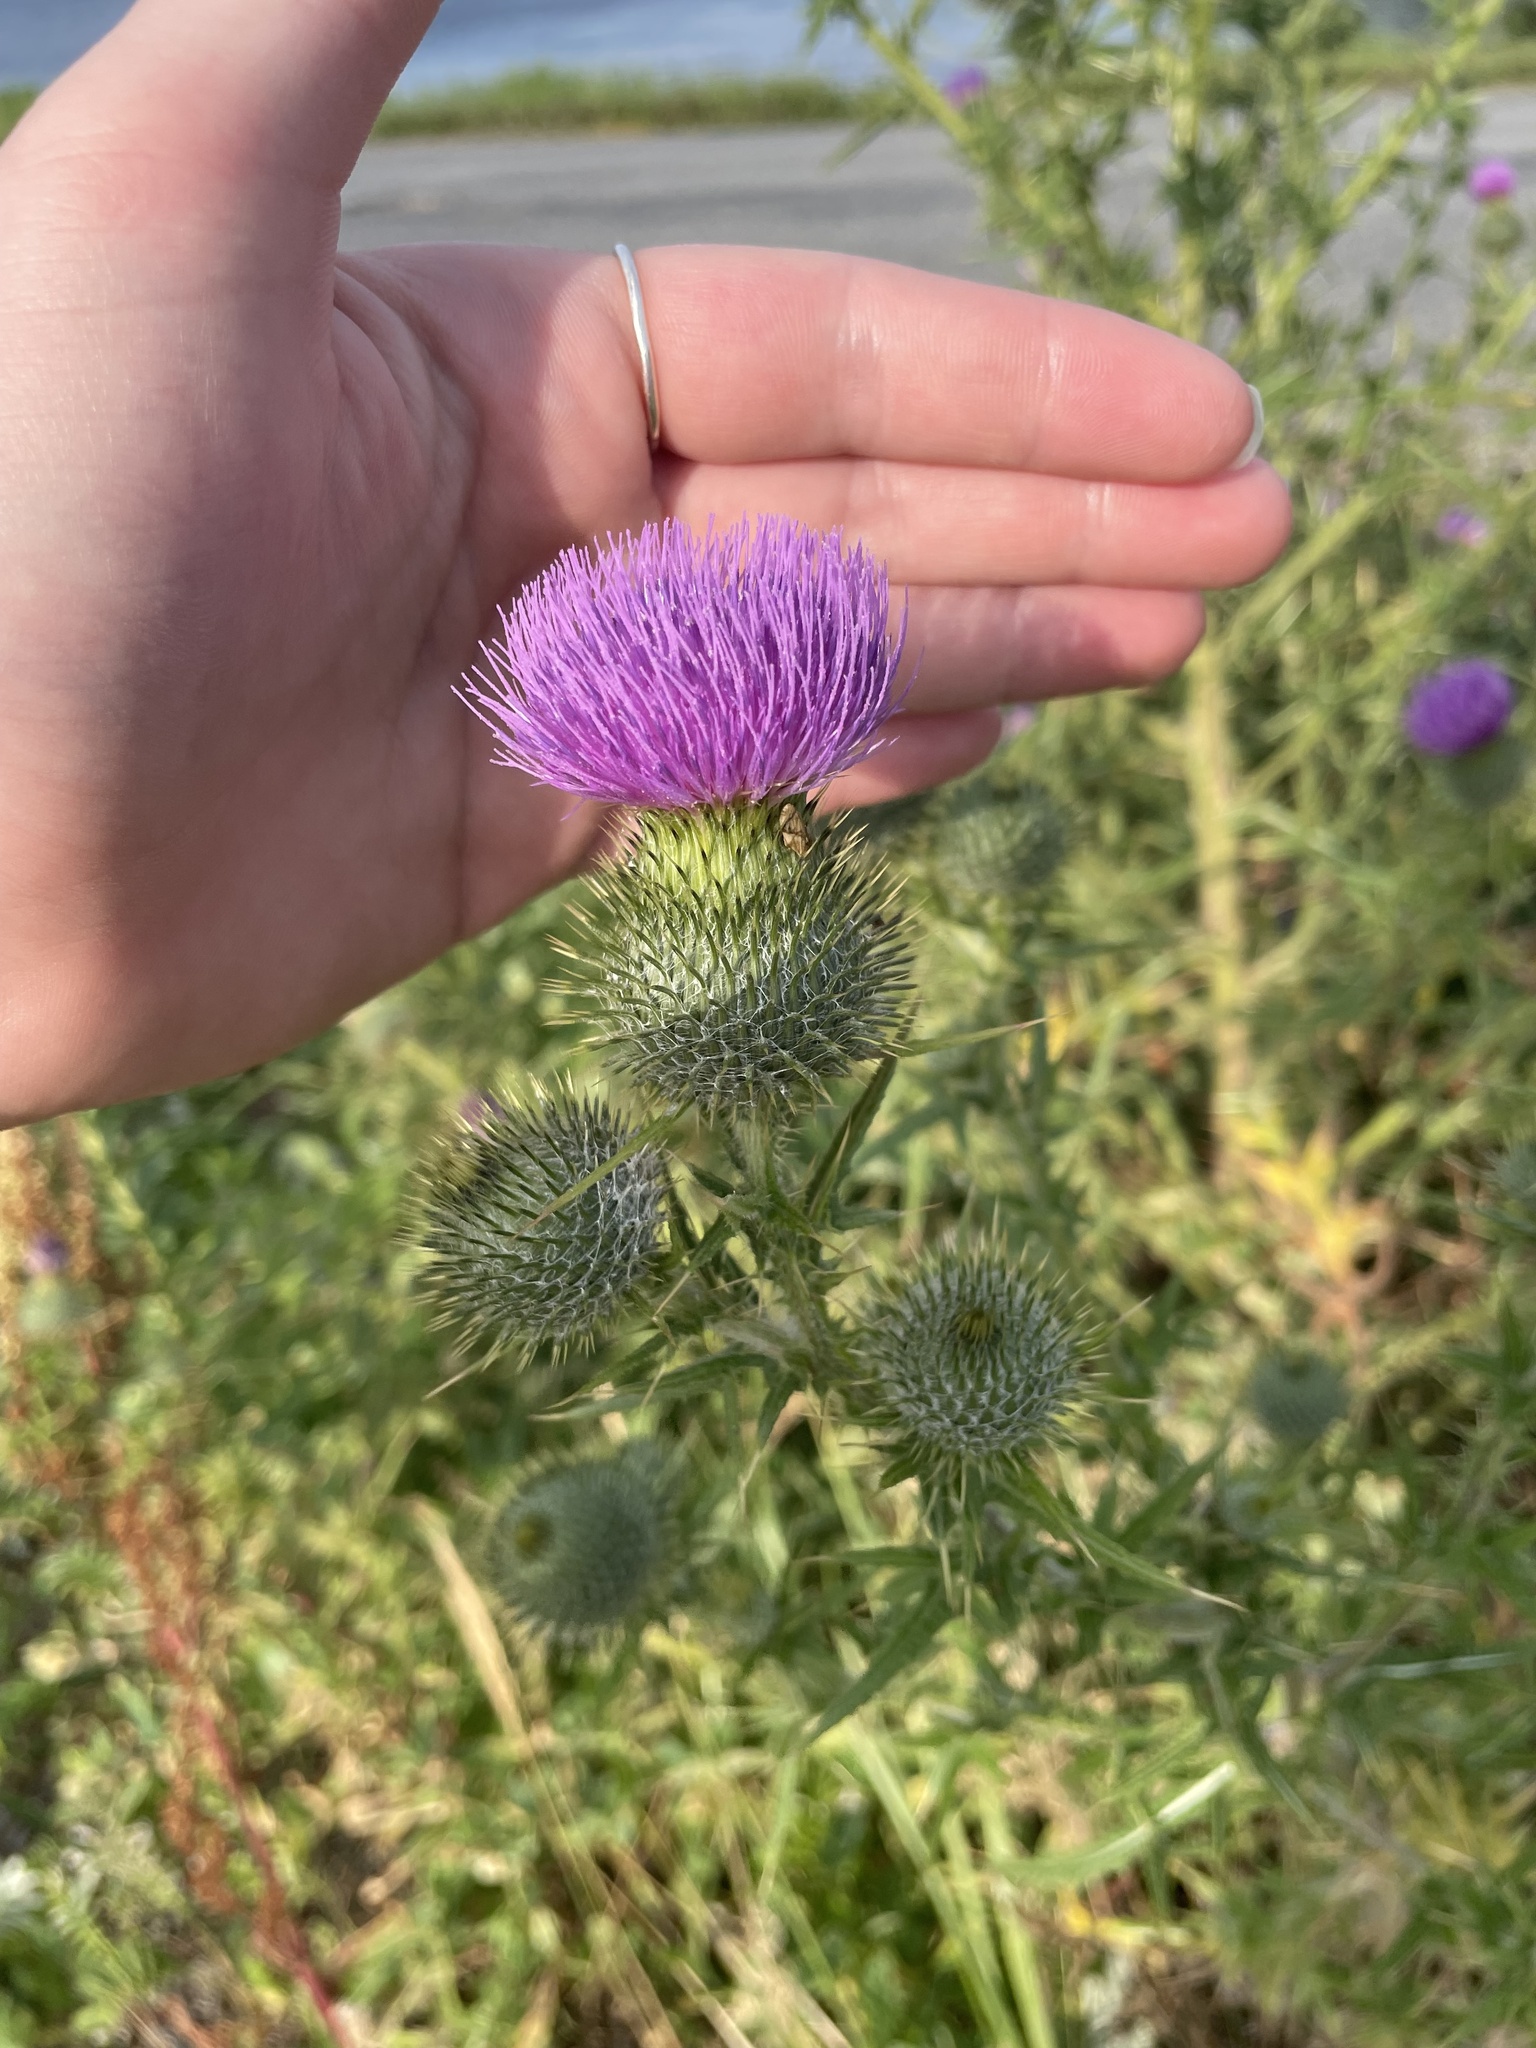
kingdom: Plantae
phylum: Tracheophyta
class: Magnoliopsida
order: Asterales
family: Asteraceae
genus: Cirsium
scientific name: Cirsium vulgare
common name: Bull thistle
